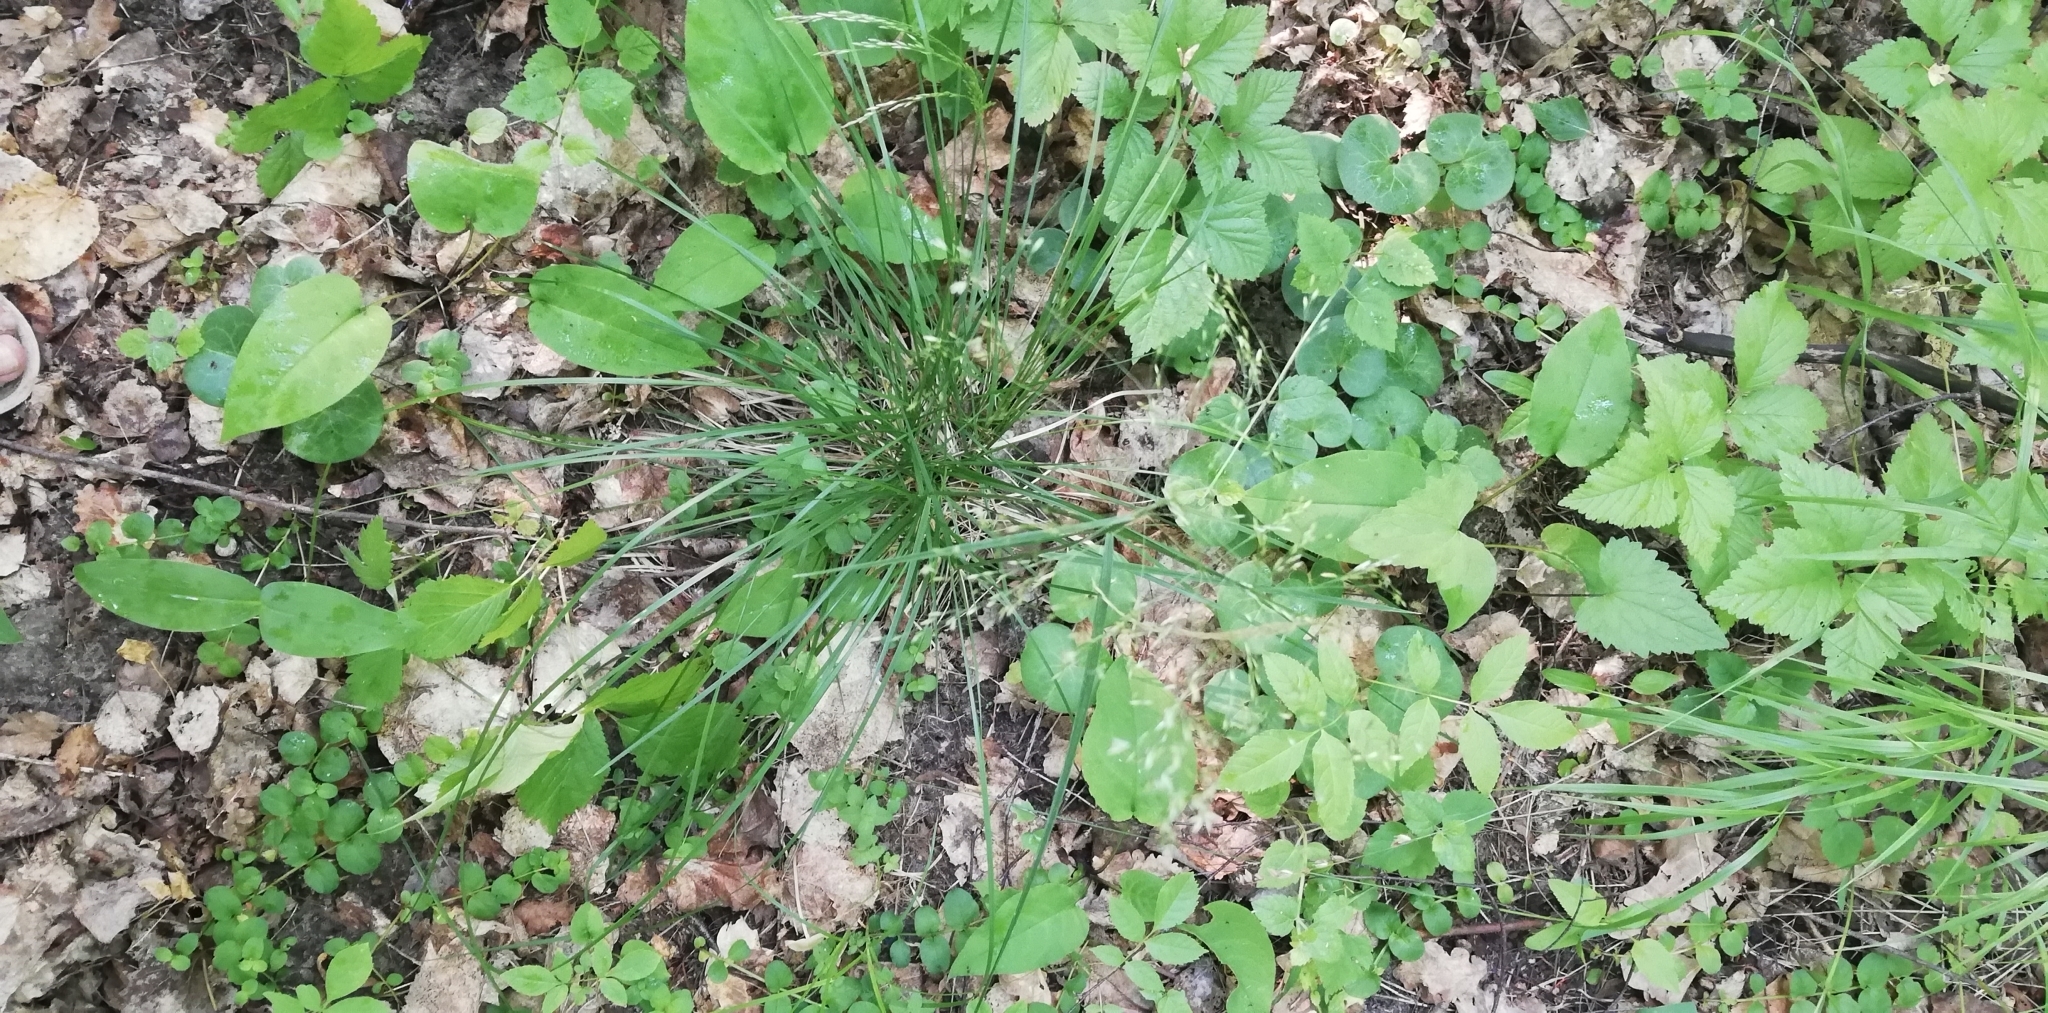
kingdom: Plantae
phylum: Tracheophyta
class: Liliopsida
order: Poales
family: Poaceae
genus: Deschampsia
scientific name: Deschampsia cespitosa
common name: Tufted hair-grass
